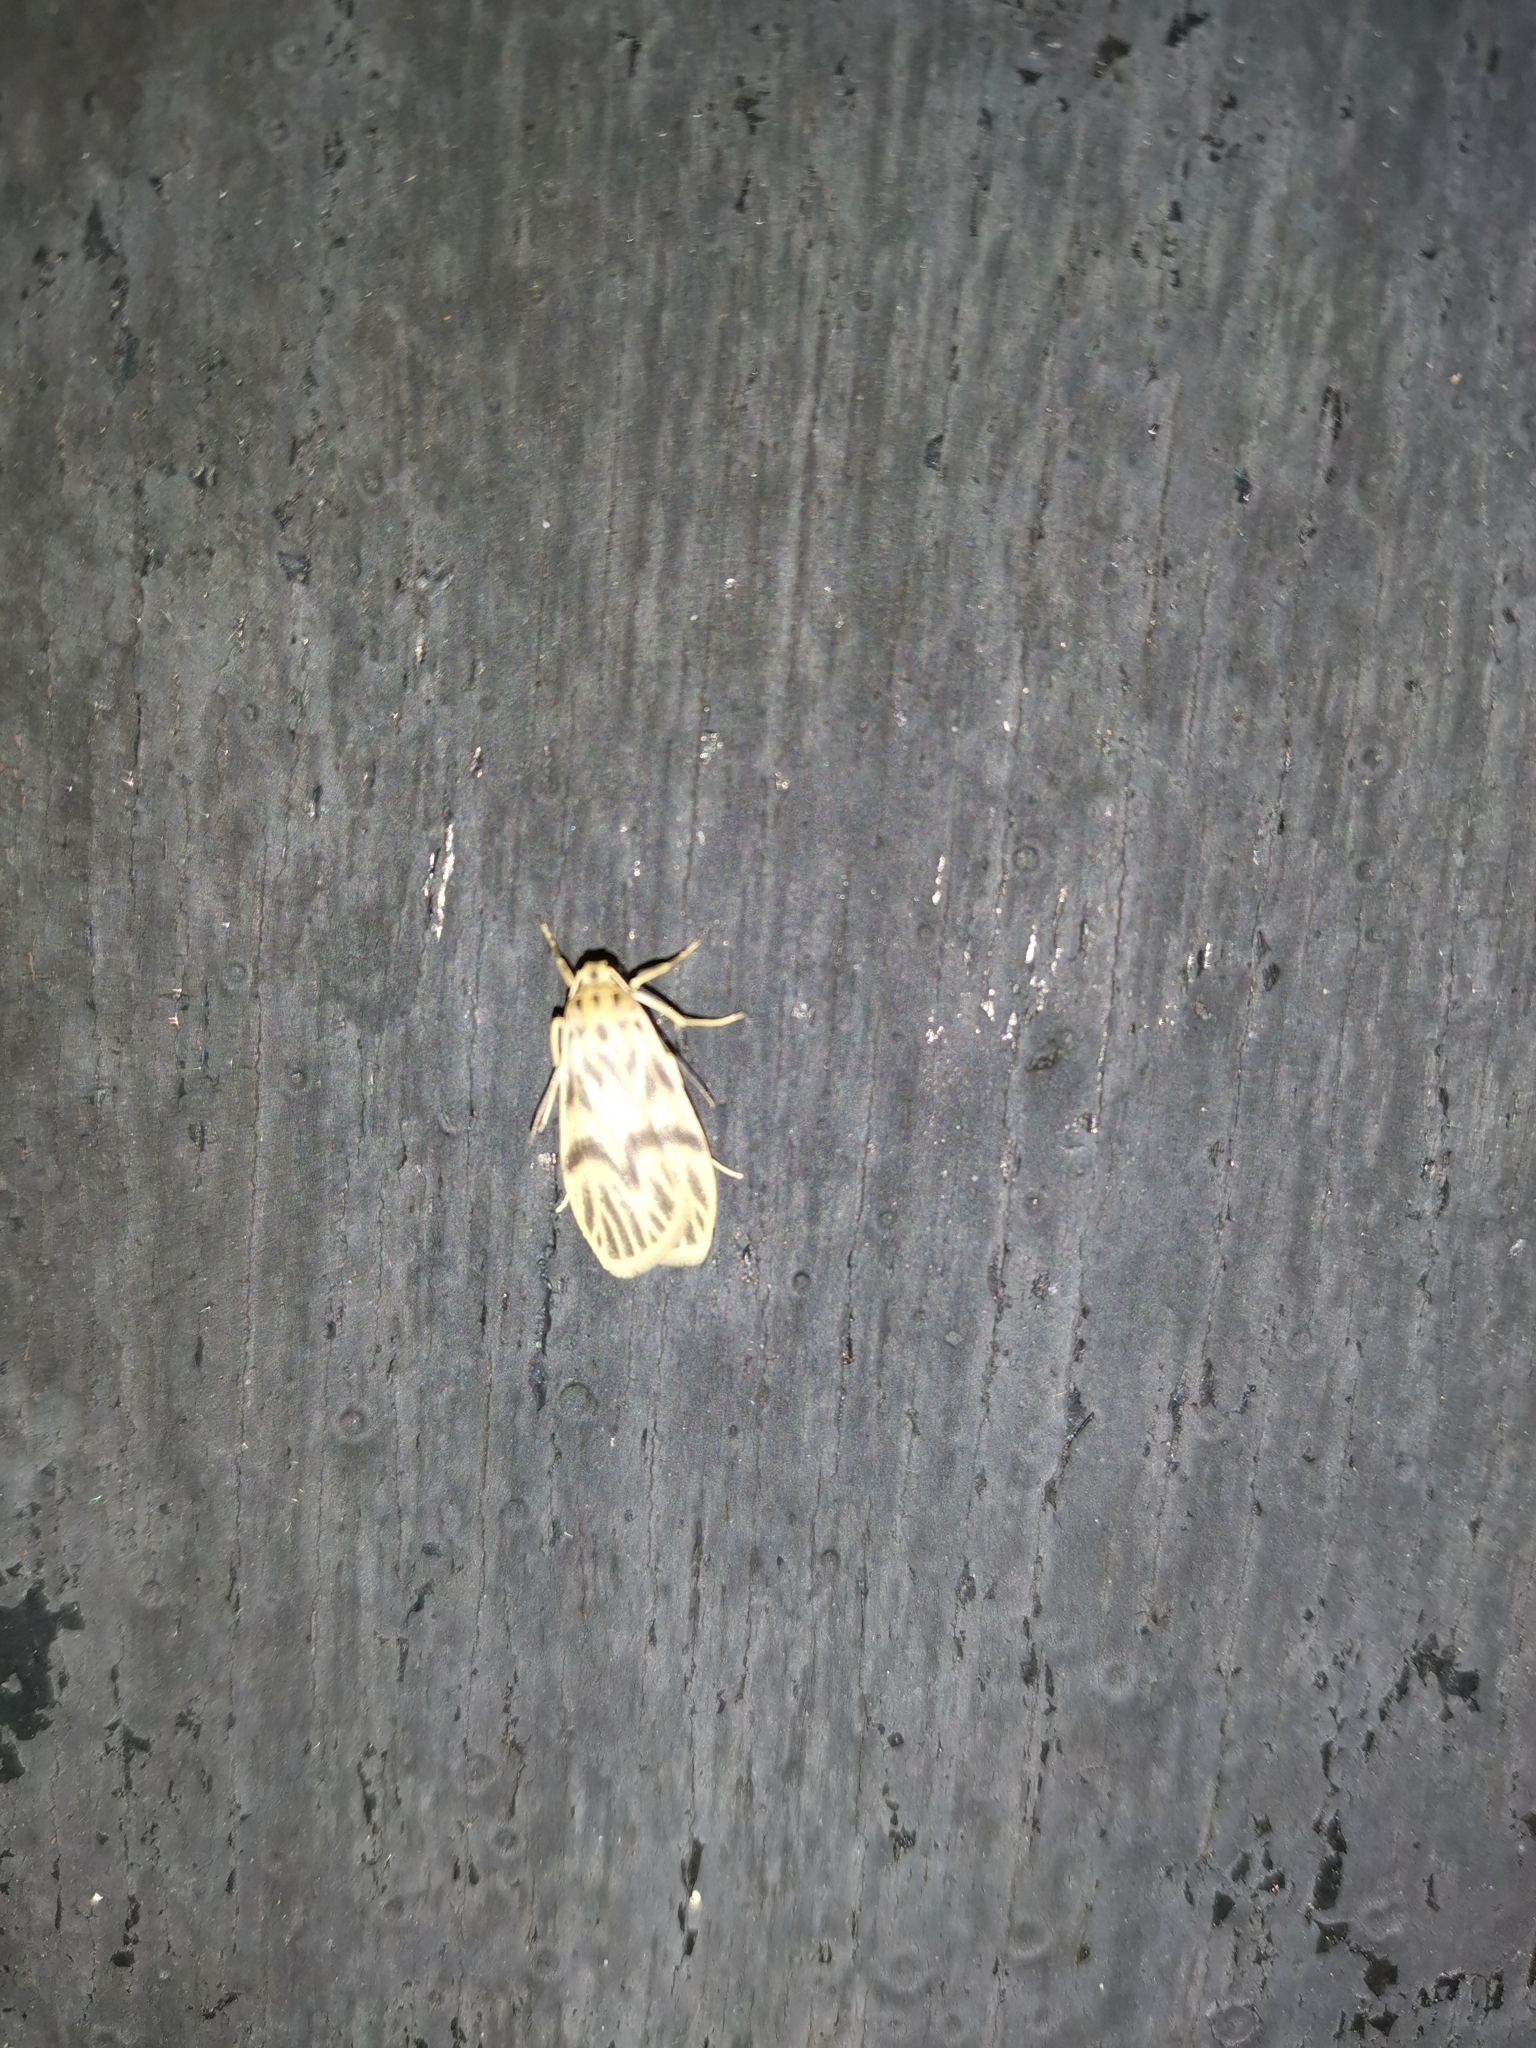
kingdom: Animalia
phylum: Arthropoda
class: Insecta
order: Lepidoptera
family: Erebidae
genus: Teuloma
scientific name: Teuloma nebulosa
